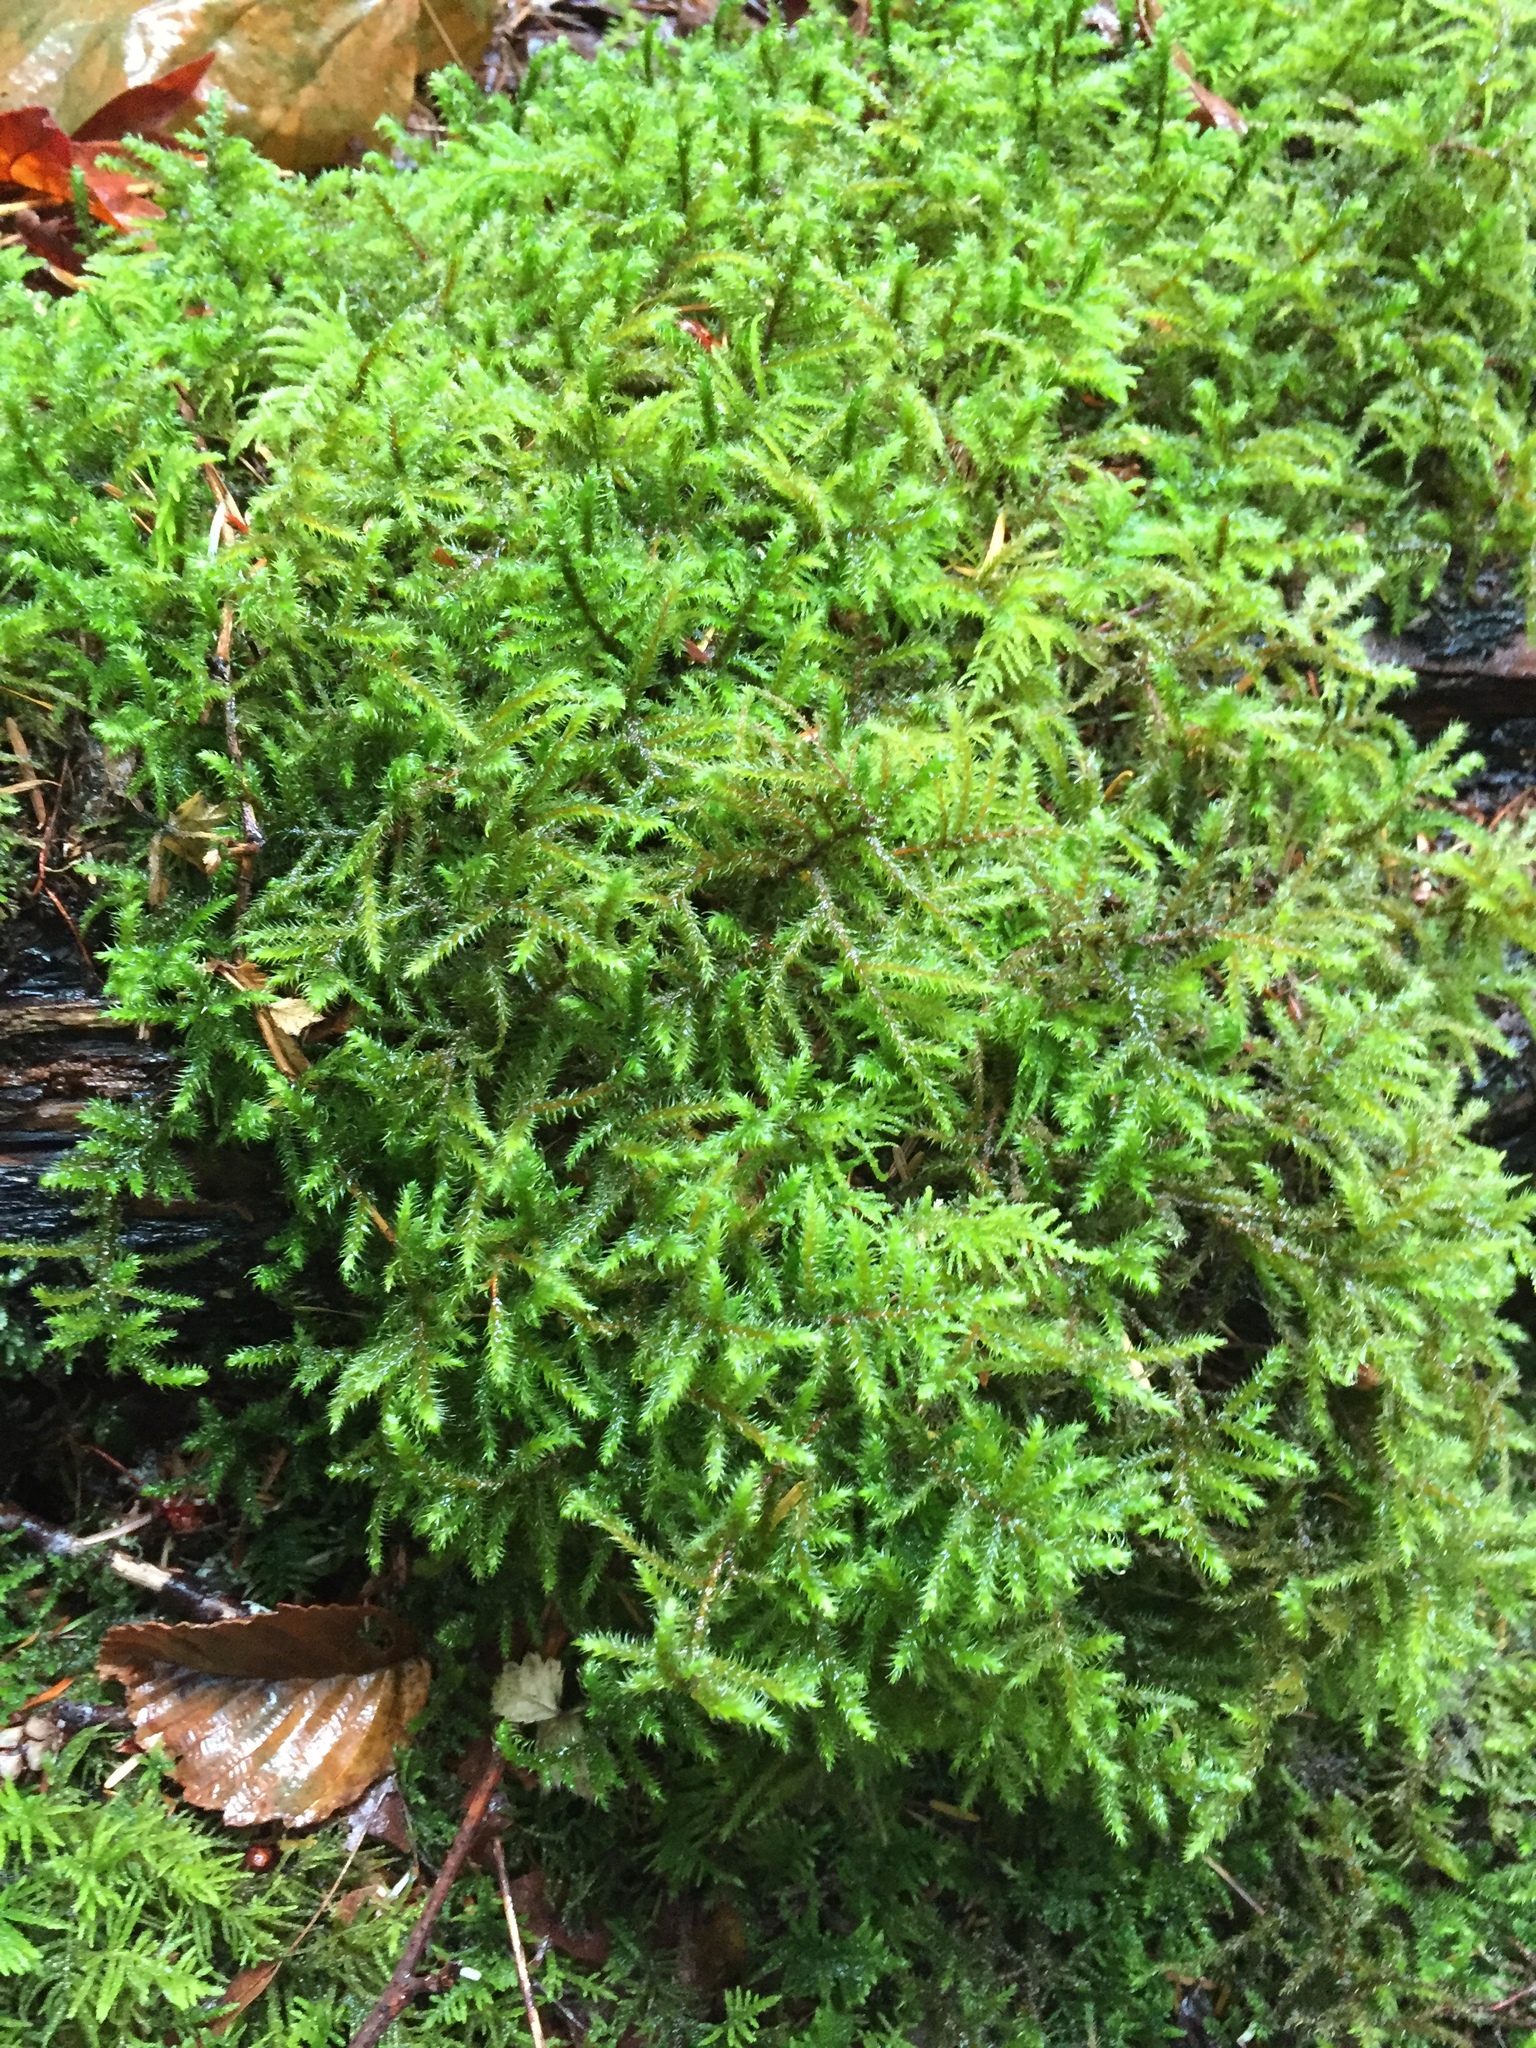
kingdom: Plantae
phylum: Bryophyta
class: Bryopsida
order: Hypnales
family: Hylocomiaceae
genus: Rhytidiadelphus
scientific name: Rhytidiadelphus loreus
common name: Lanky moss
